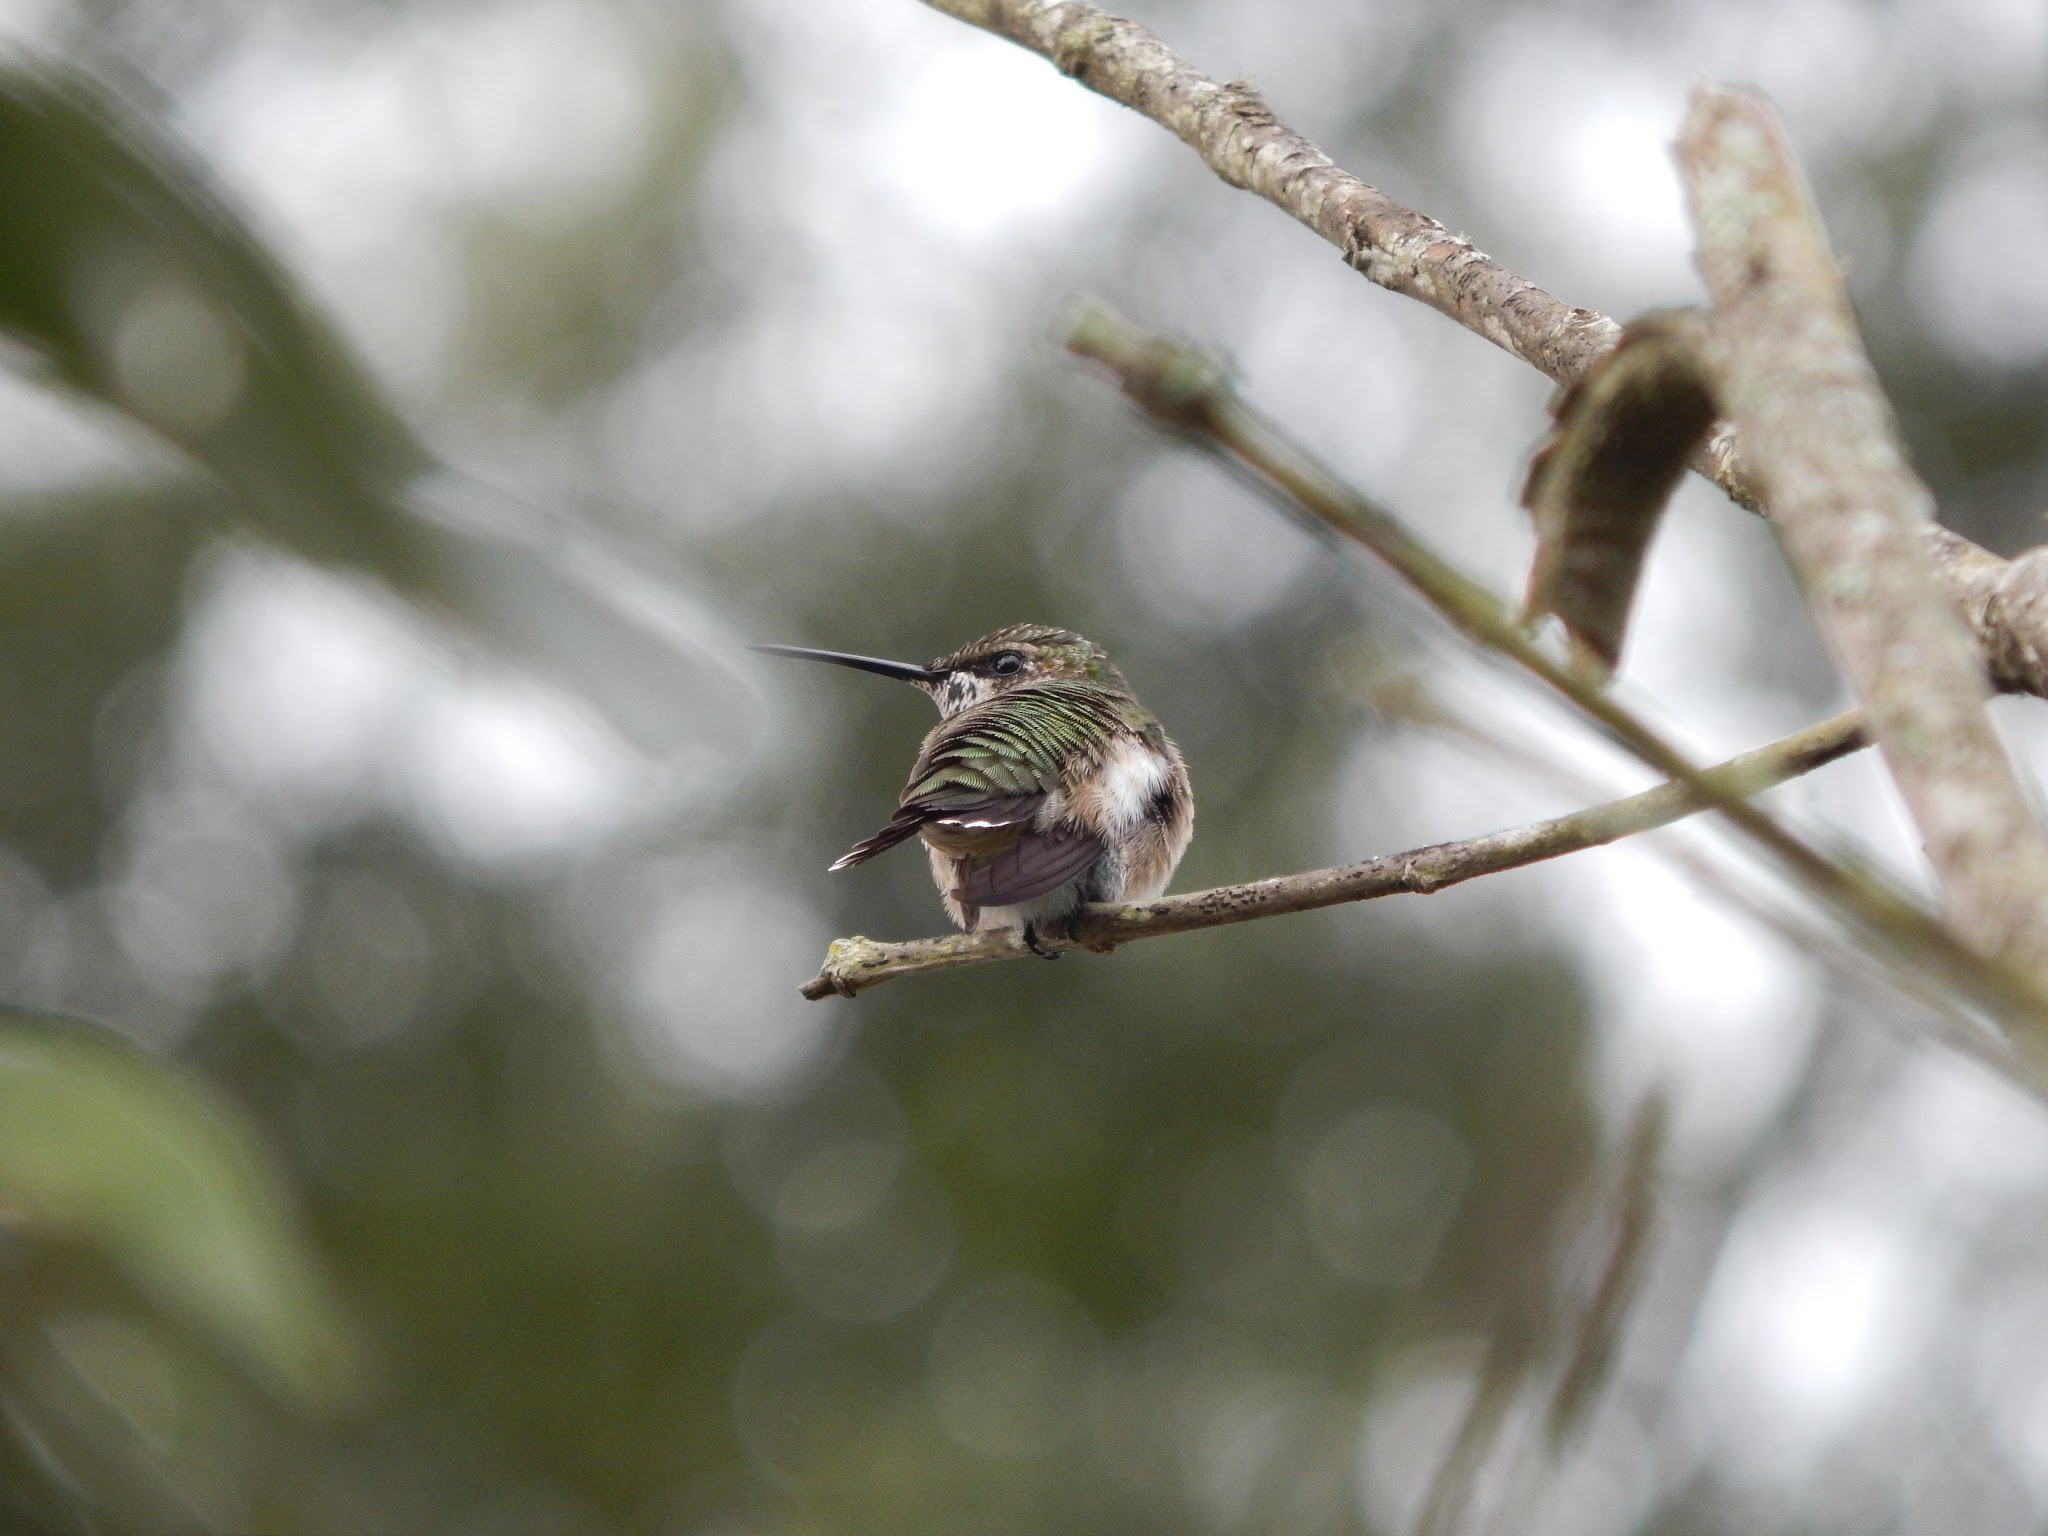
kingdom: Animalia
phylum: Chordata
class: Aves
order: Apodiformes
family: Trochilidae
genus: Archilochus
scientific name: Archilochus colubris
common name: Ruby-throated hummingbird
